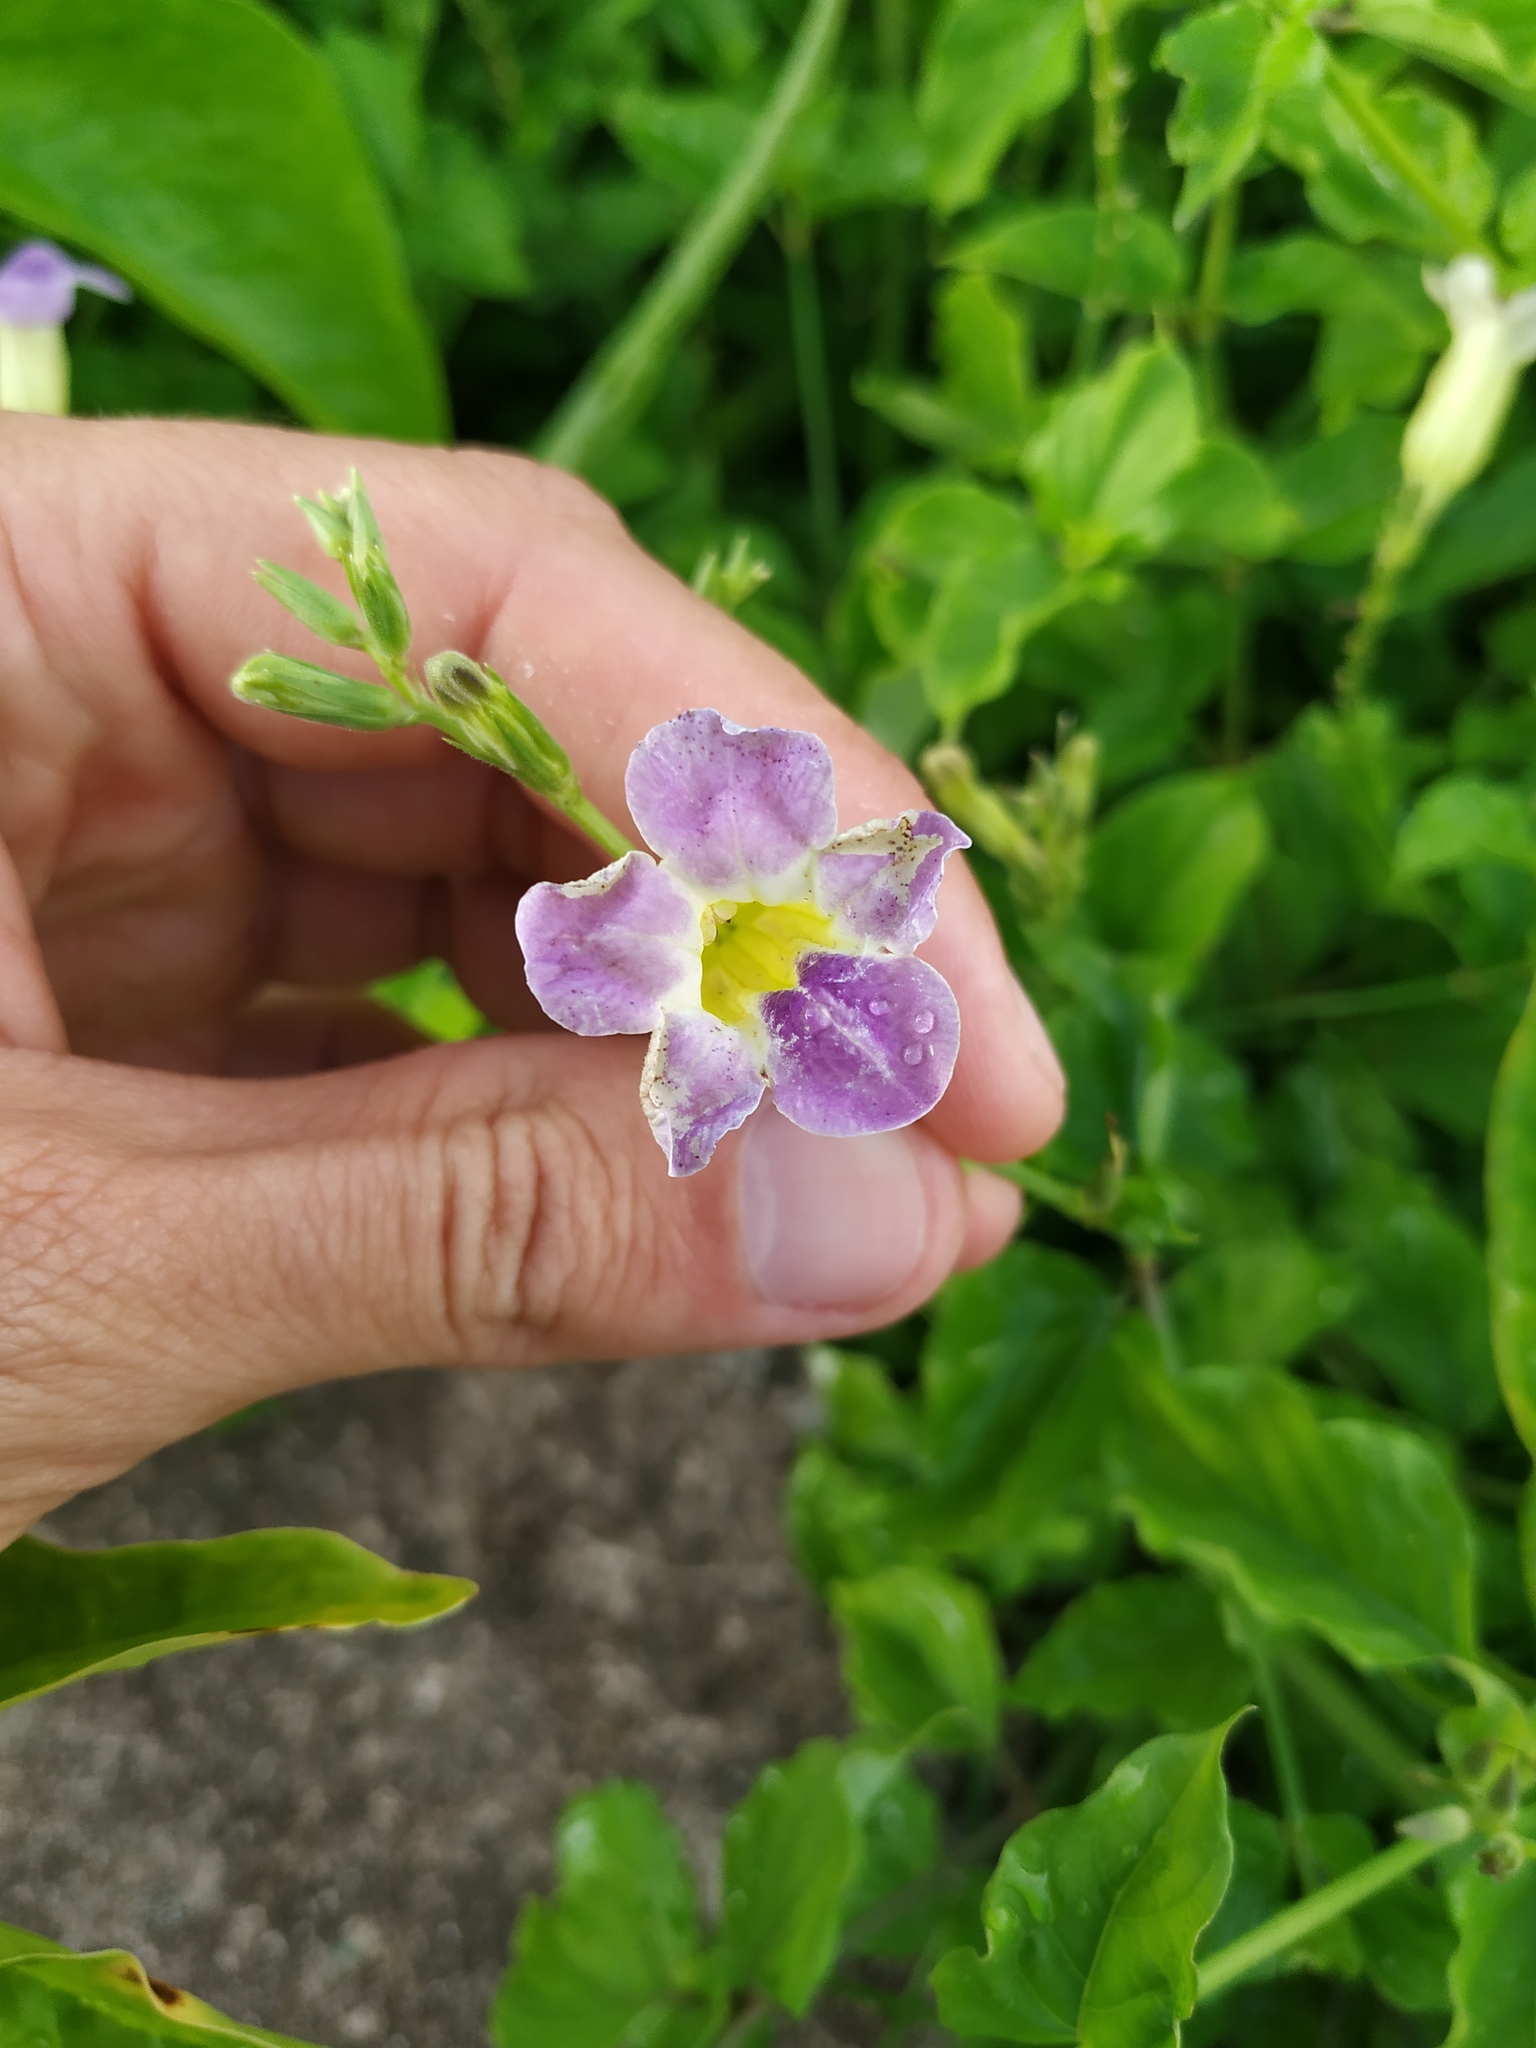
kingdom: Plantae
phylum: Tracheophyta
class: Magnoliopsida
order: Lamiales
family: Acanthaceae
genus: Asystasia
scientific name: Asystasia gangetica
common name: Chinese violet
